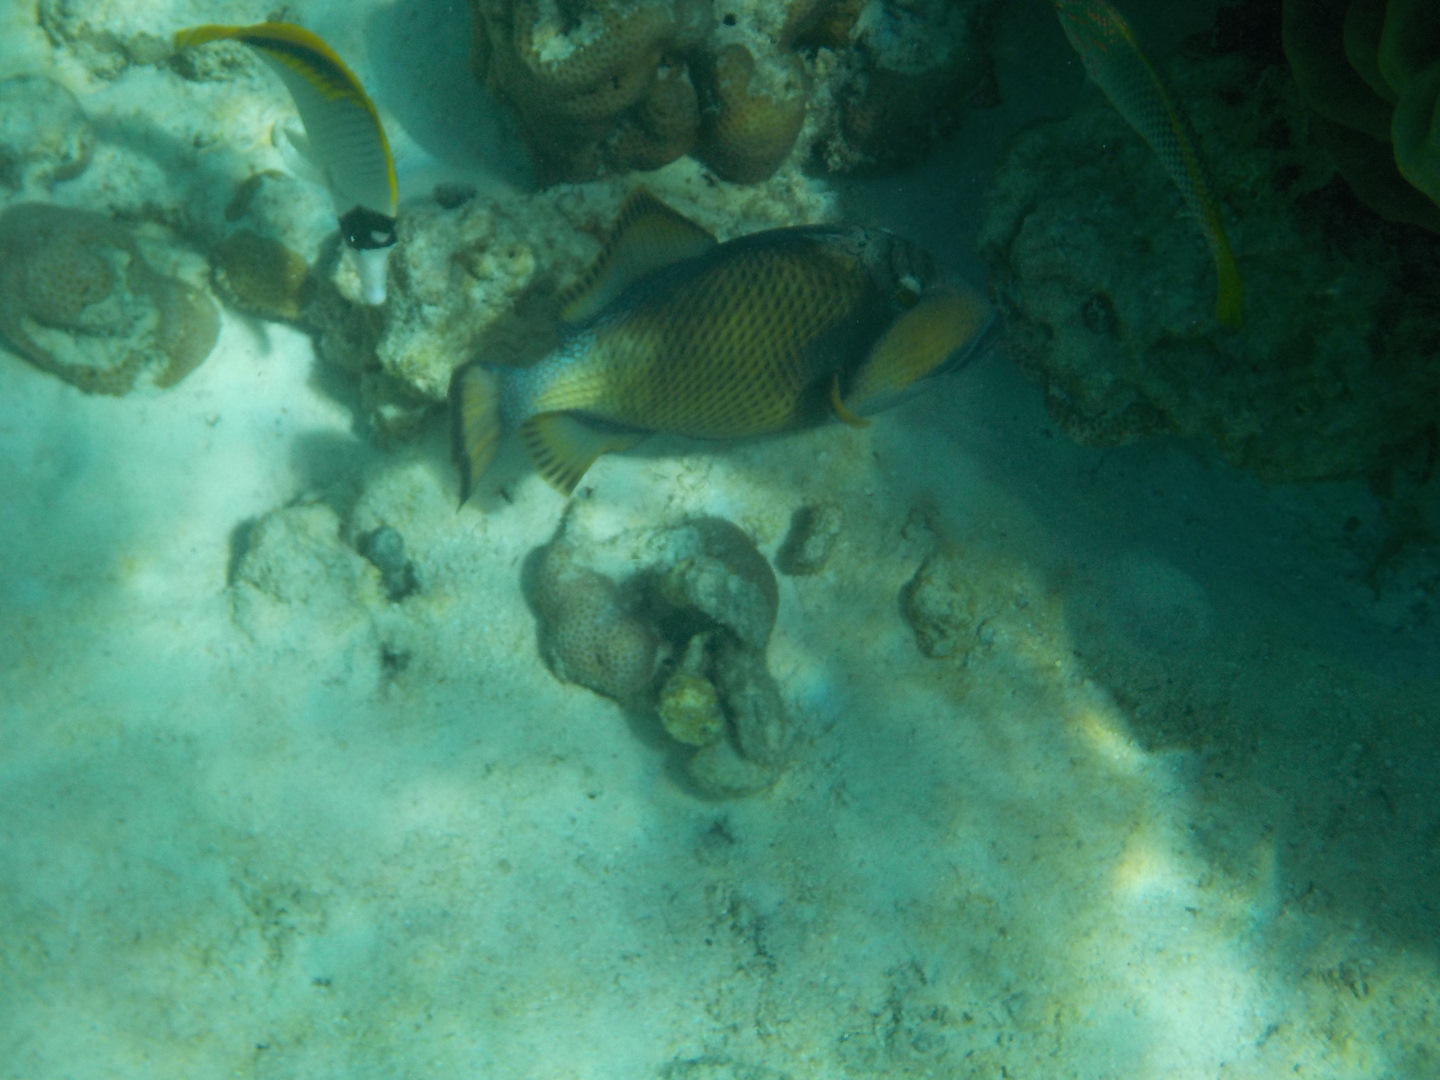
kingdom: Animalia
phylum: Chordata
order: Tetraodontiformes
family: Balistidae
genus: Balistoides
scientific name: Balistoides viridescens
